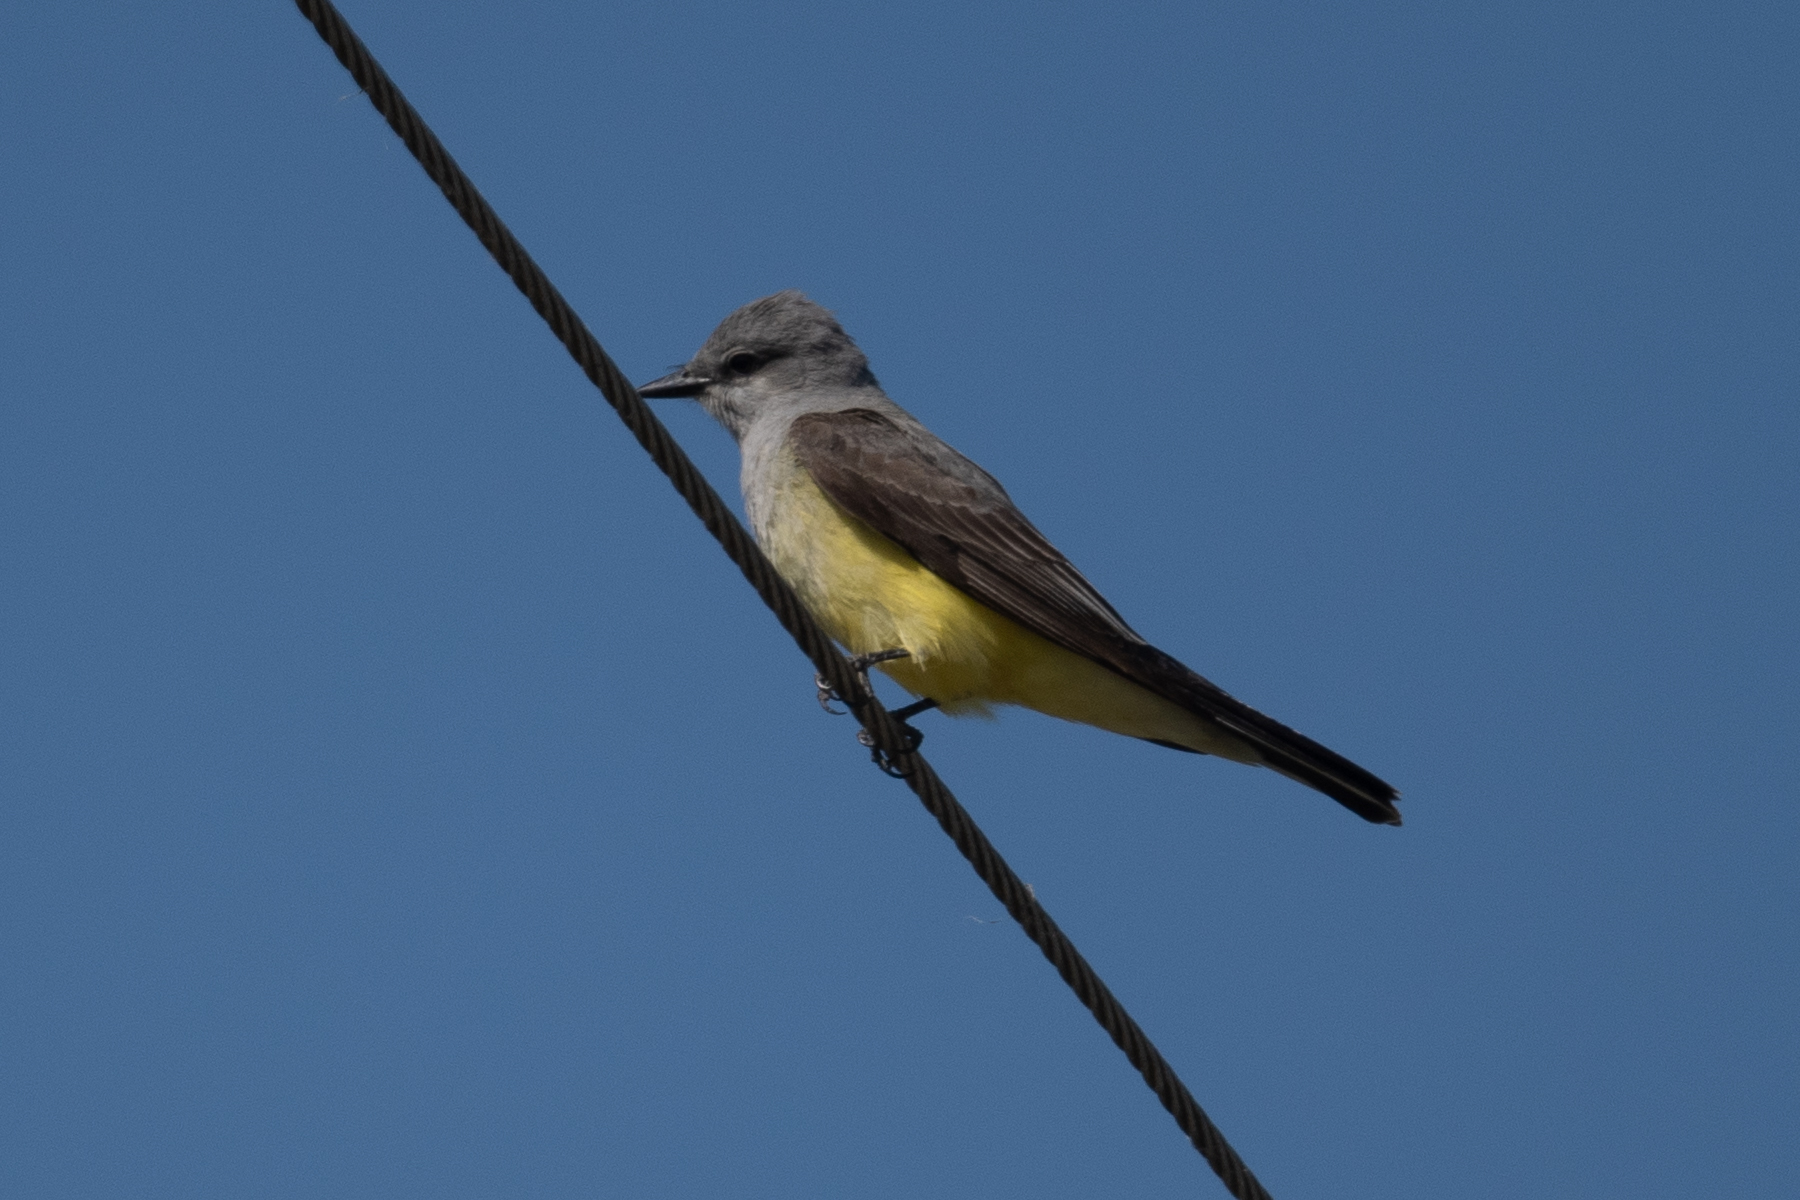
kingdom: Animalia
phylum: Chordata
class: Aves
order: Passeriformes
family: Tyrannidae
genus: Tyrannus
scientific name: Tyrannus verticalis
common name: Western kingbird
